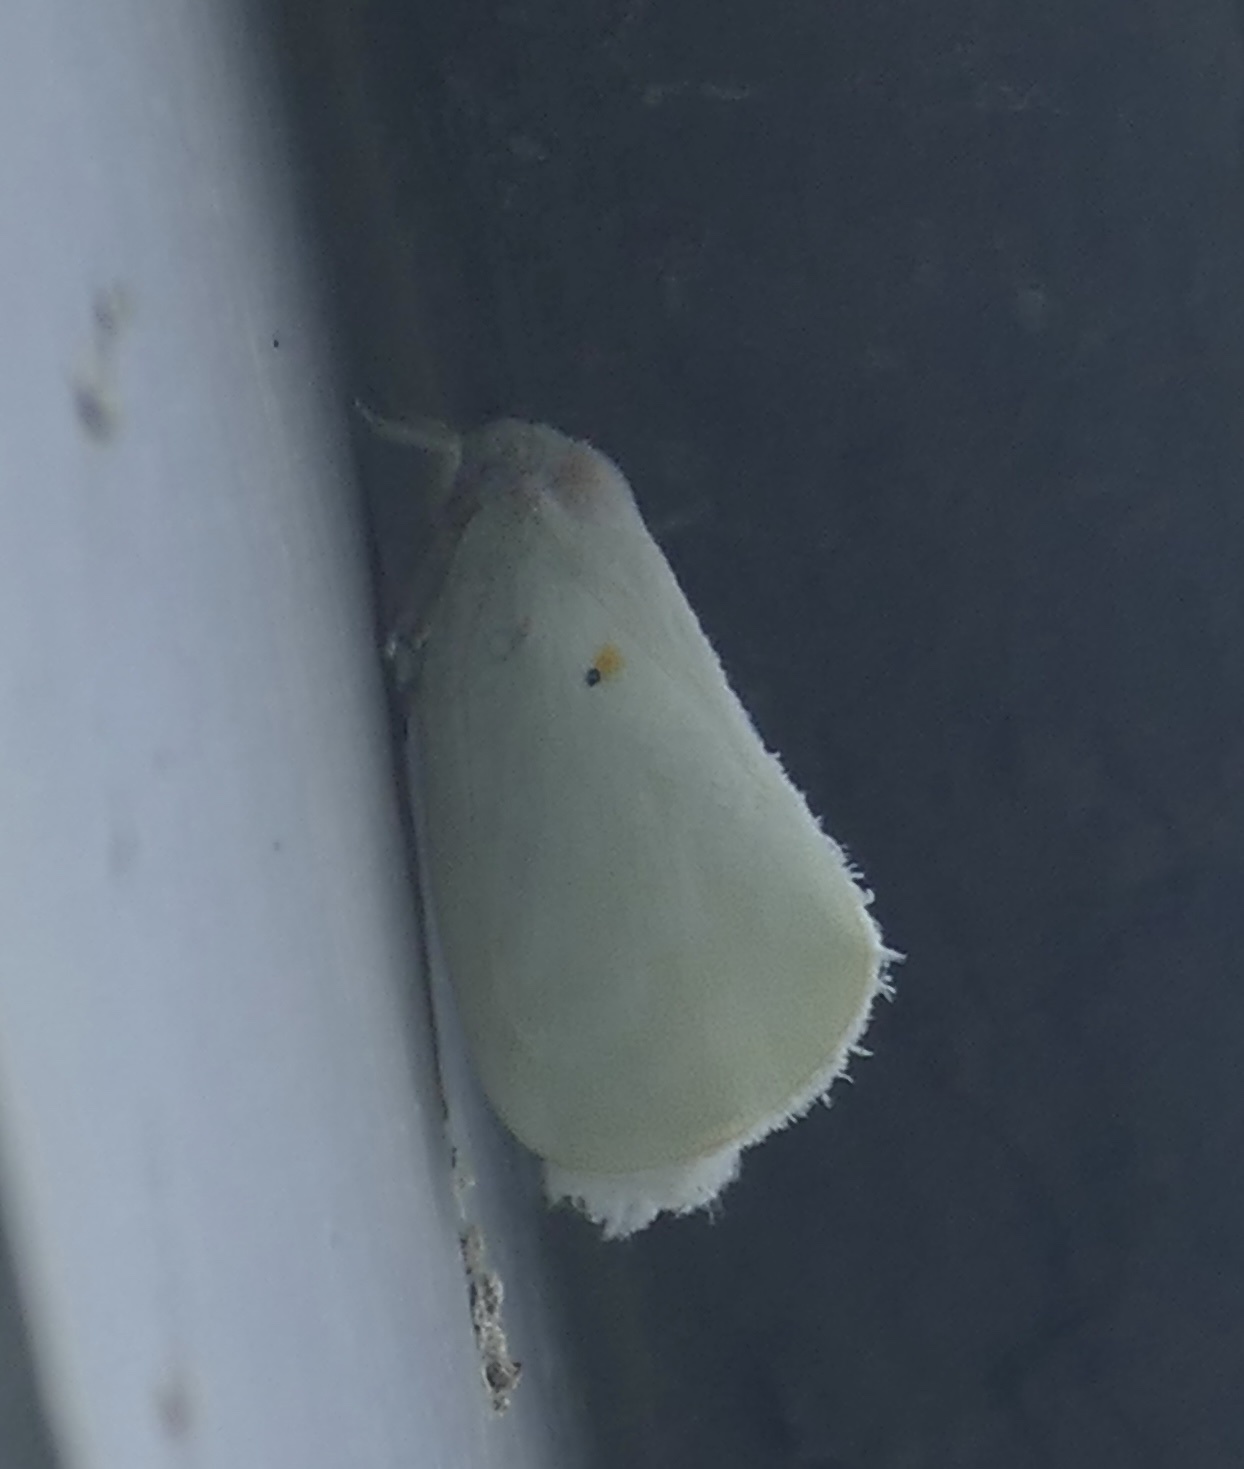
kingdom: Animalia
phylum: Arthropoda
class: Insecta
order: Hemiptera
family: Flatidae
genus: Poeciloflata
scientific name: Poeciloflata
